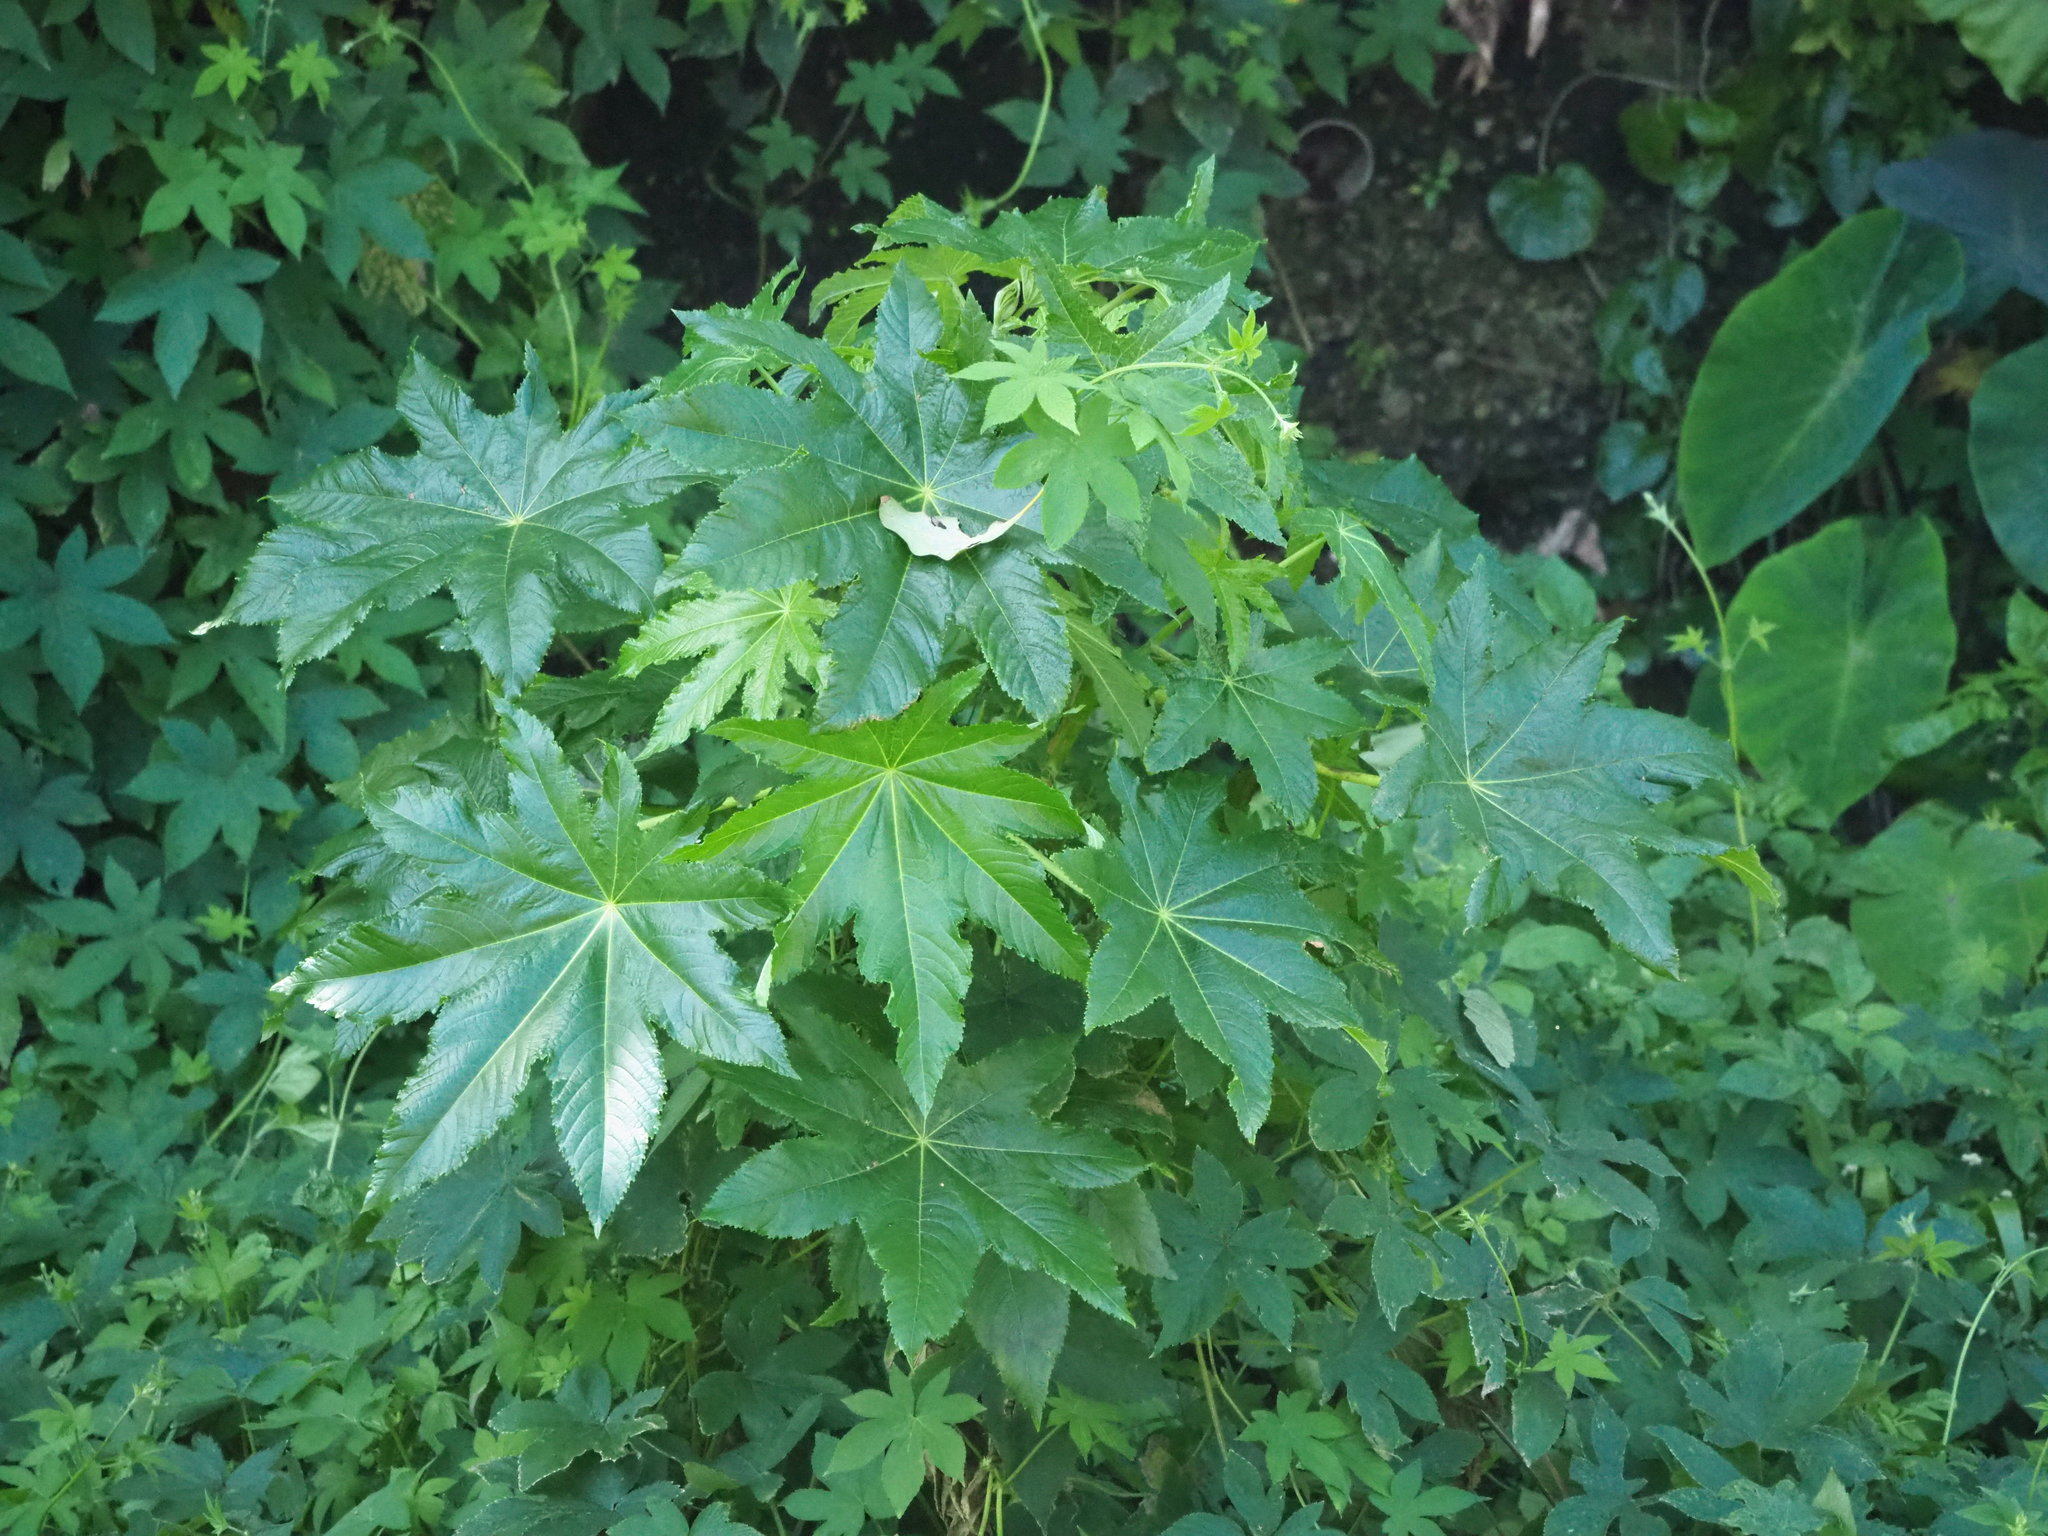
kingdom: Plantae
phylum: Tracheophyta
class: Magnoliopsida
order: Malpighiales
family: Euphorbiaceae
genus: Ricinus
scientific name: Ricinus communis
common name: Castor-oil-plant
